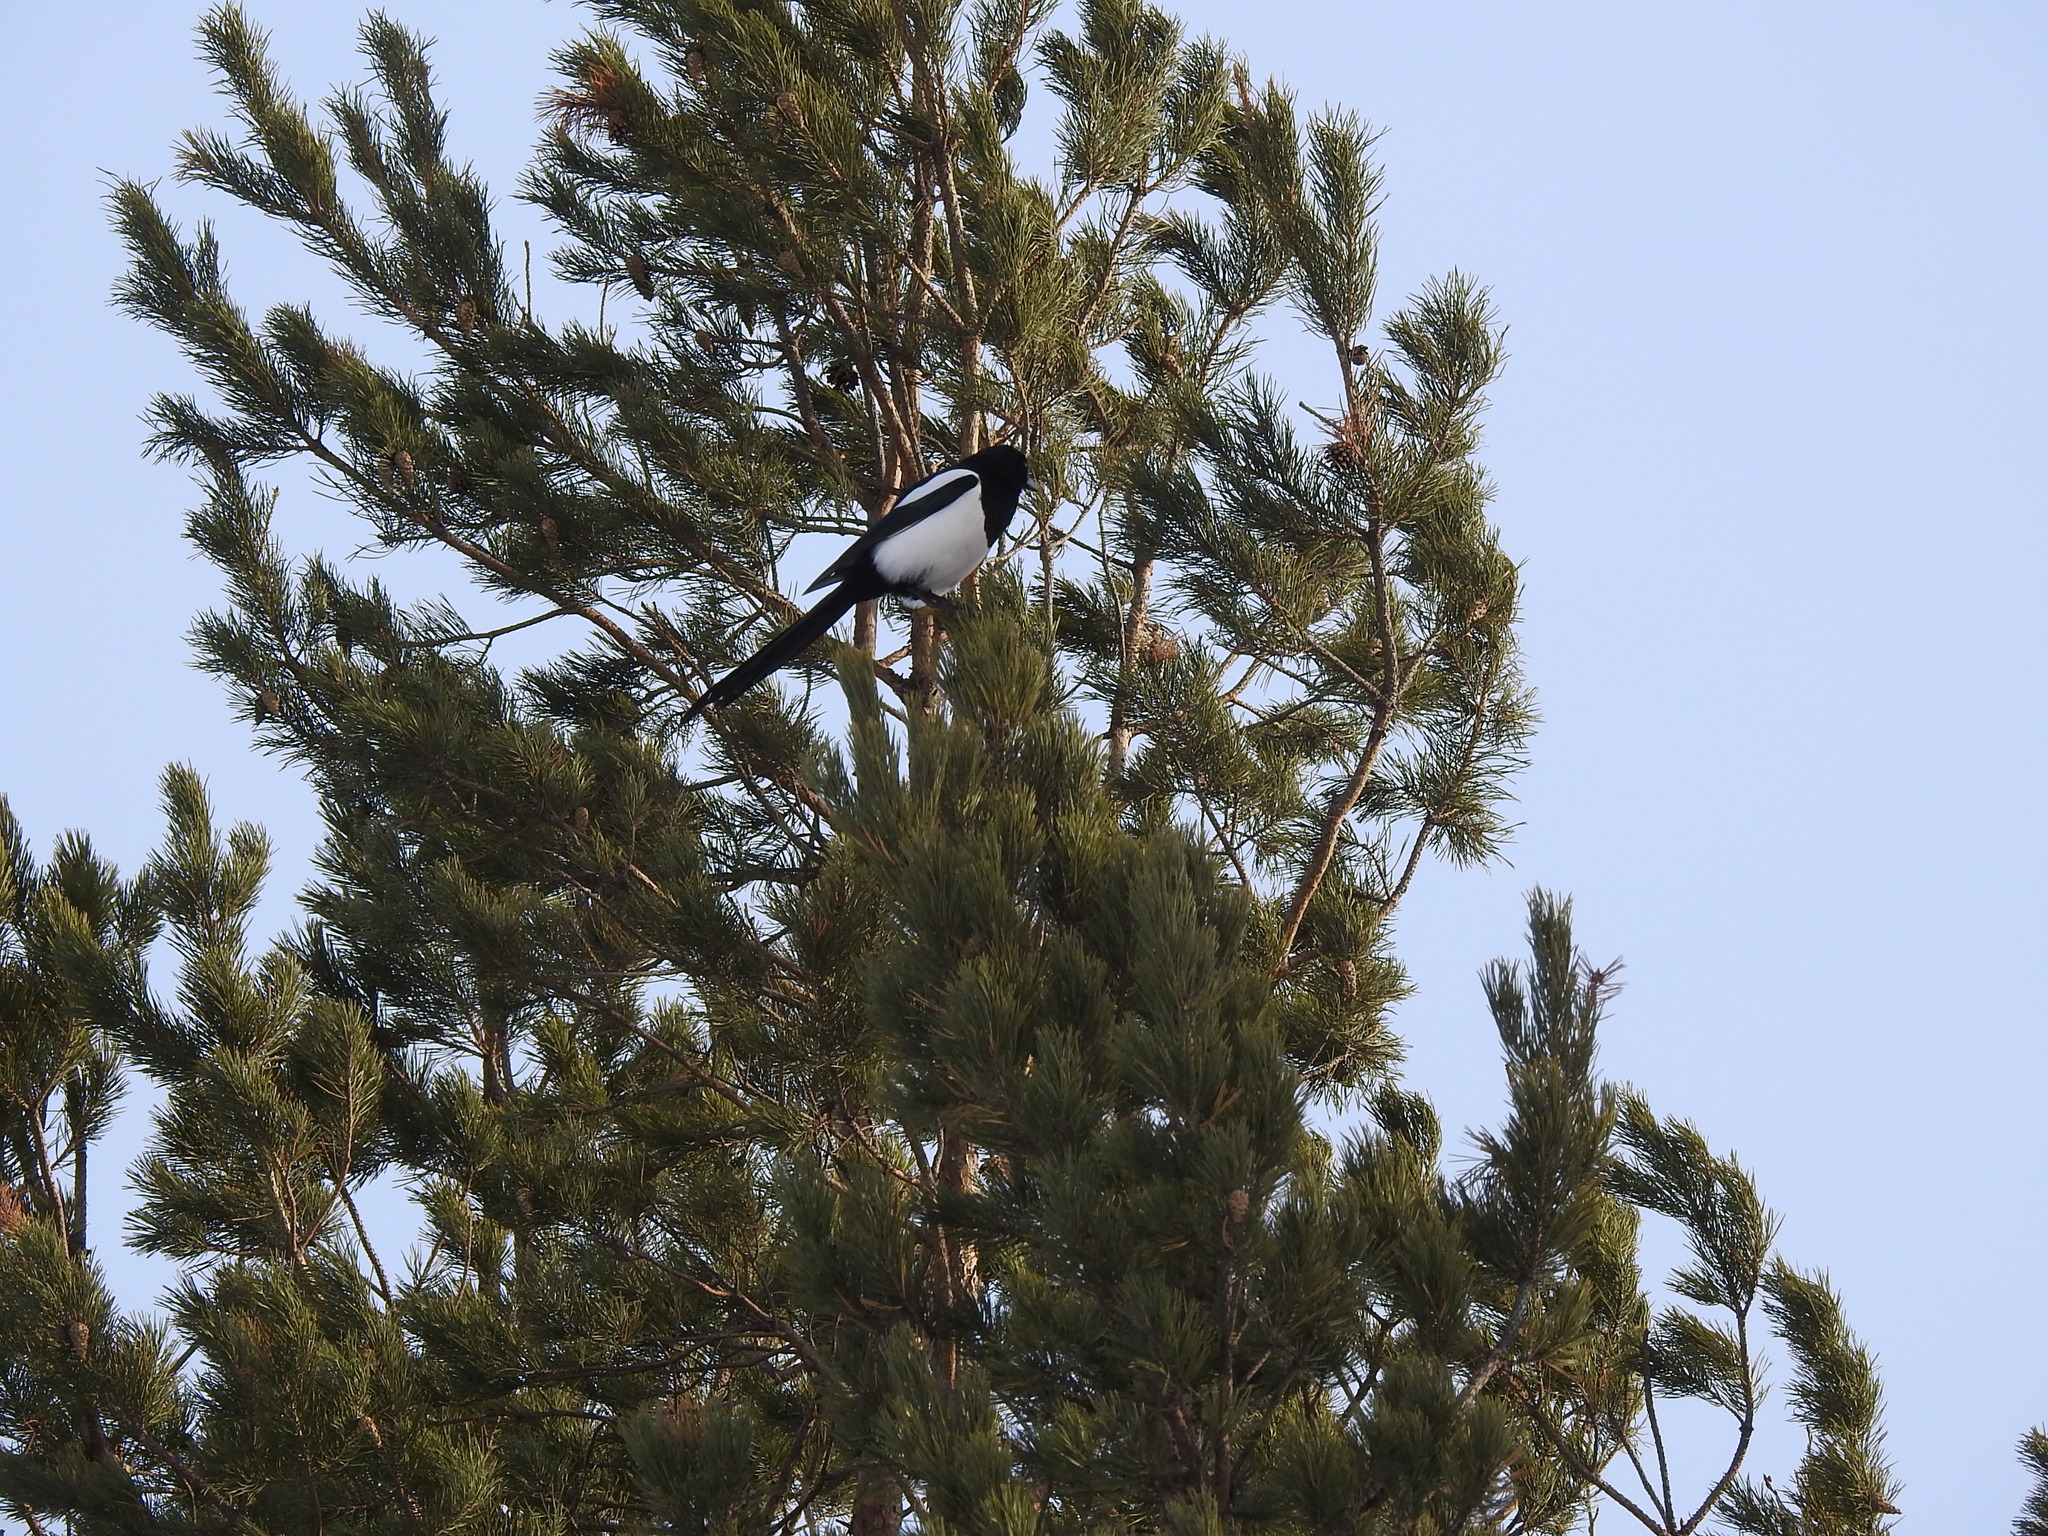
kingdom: Animalia
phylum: Chordata
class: Aves
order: Passeriformes
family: Corvidae
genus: Pica
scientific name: Pica pica
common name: Eurasian magpie
